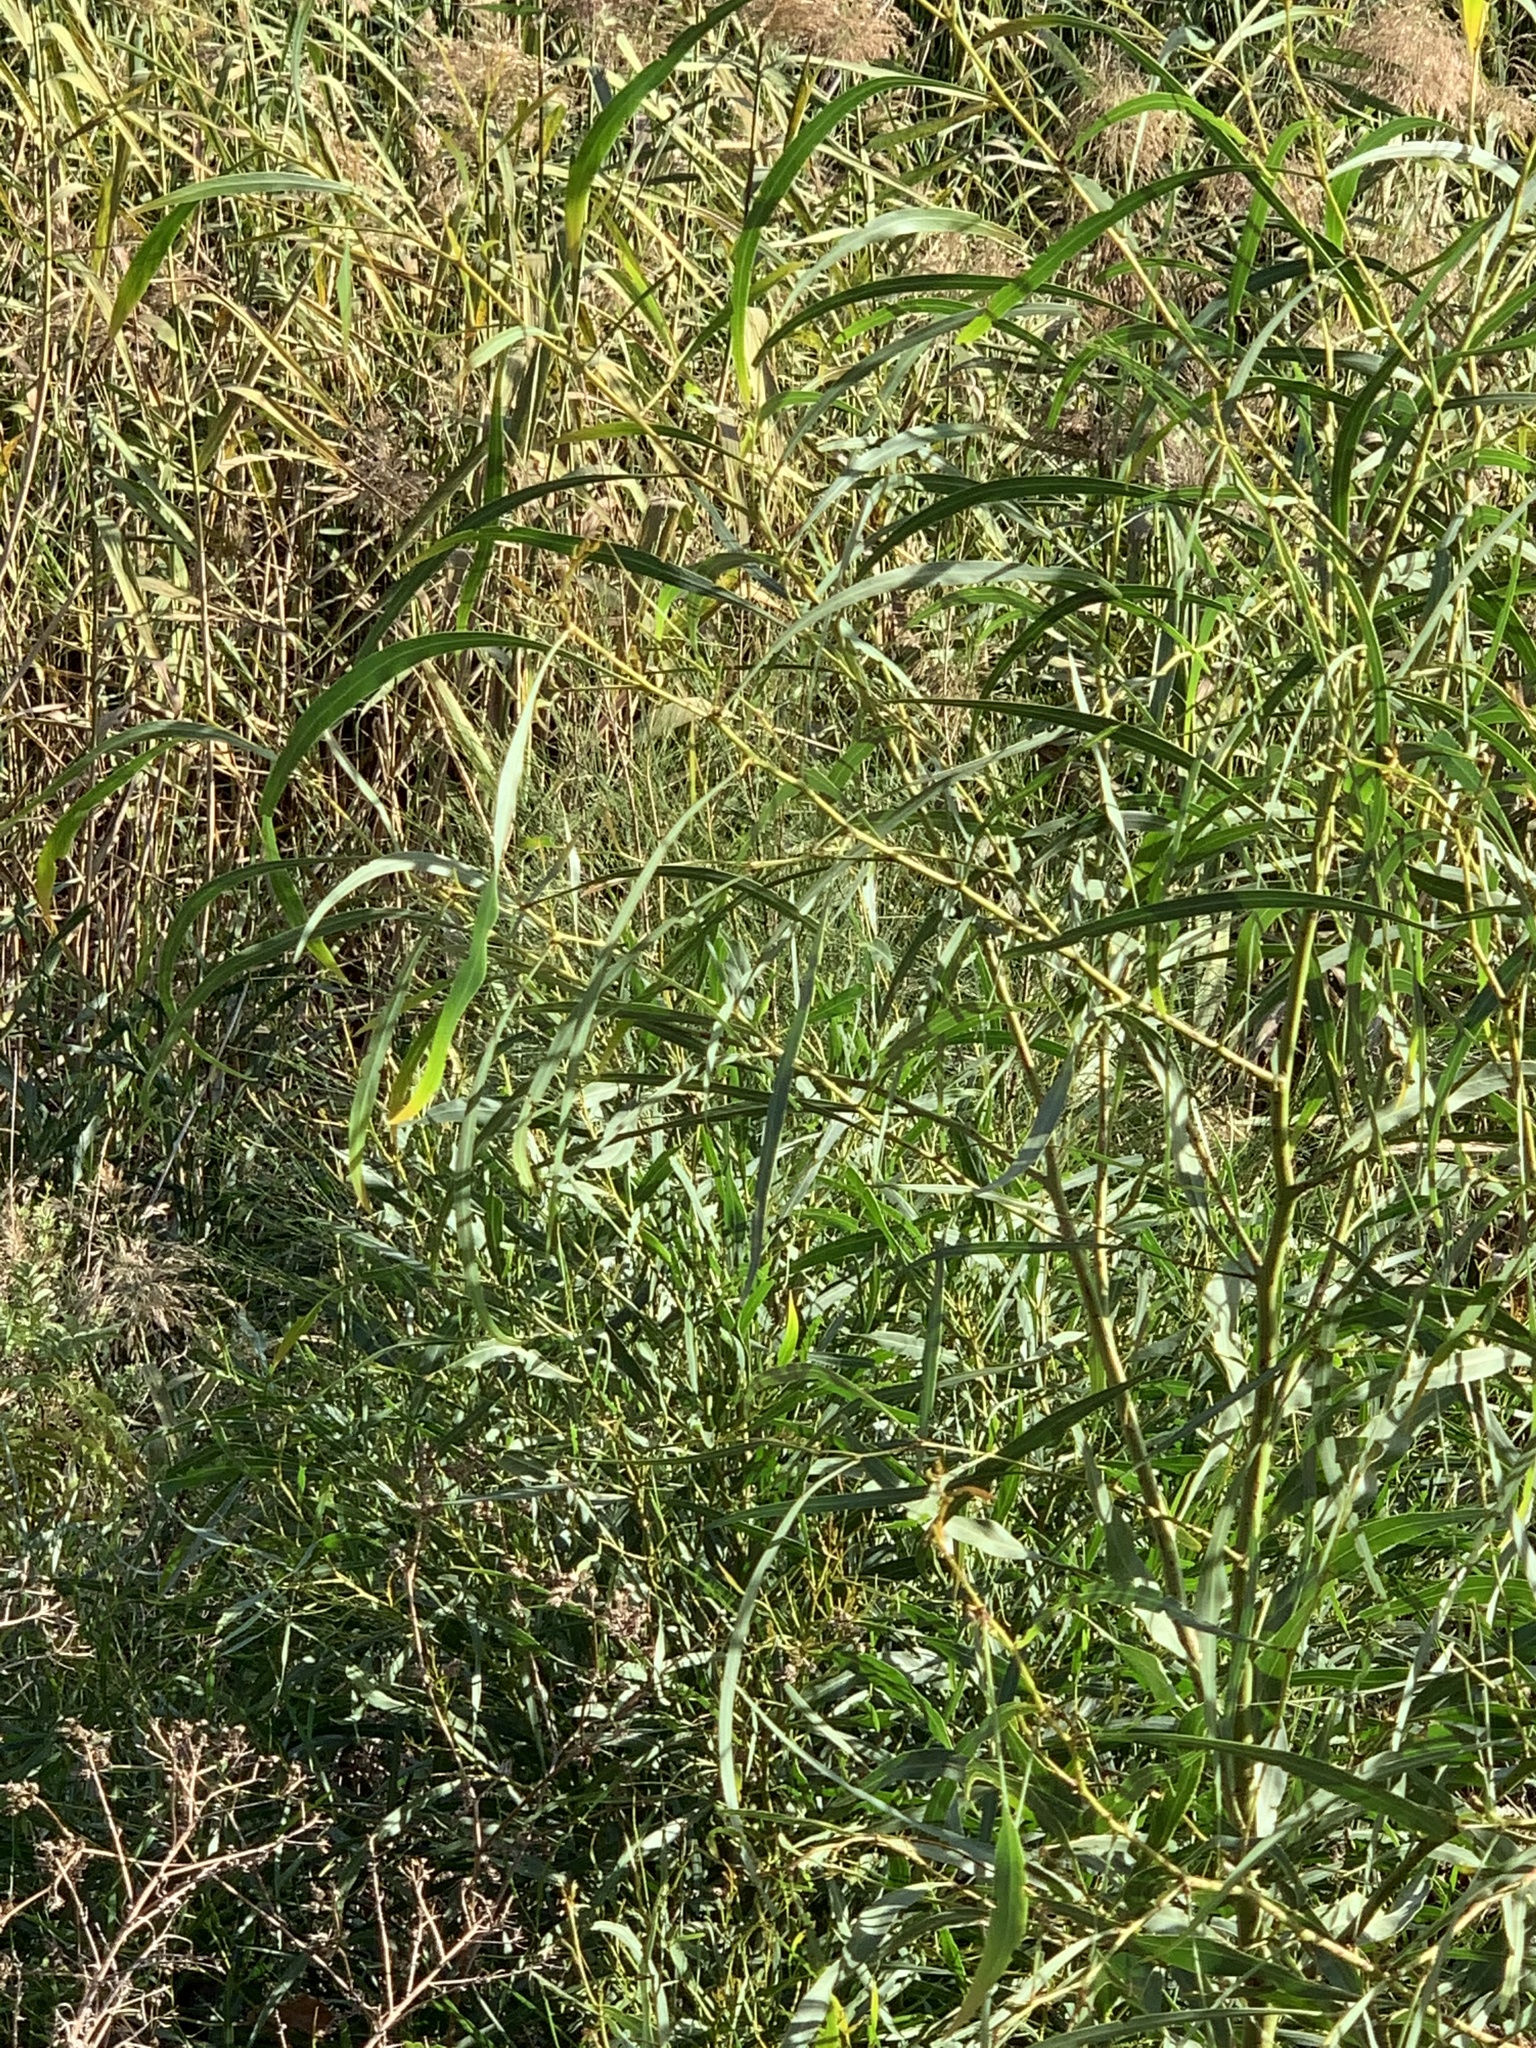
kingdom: Plantae
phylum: Tracheophyta
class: Magnoliopsida
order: Fabales
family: Fabaceae
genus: Acacia
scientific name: Acacia saligna
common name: Orange wattle
